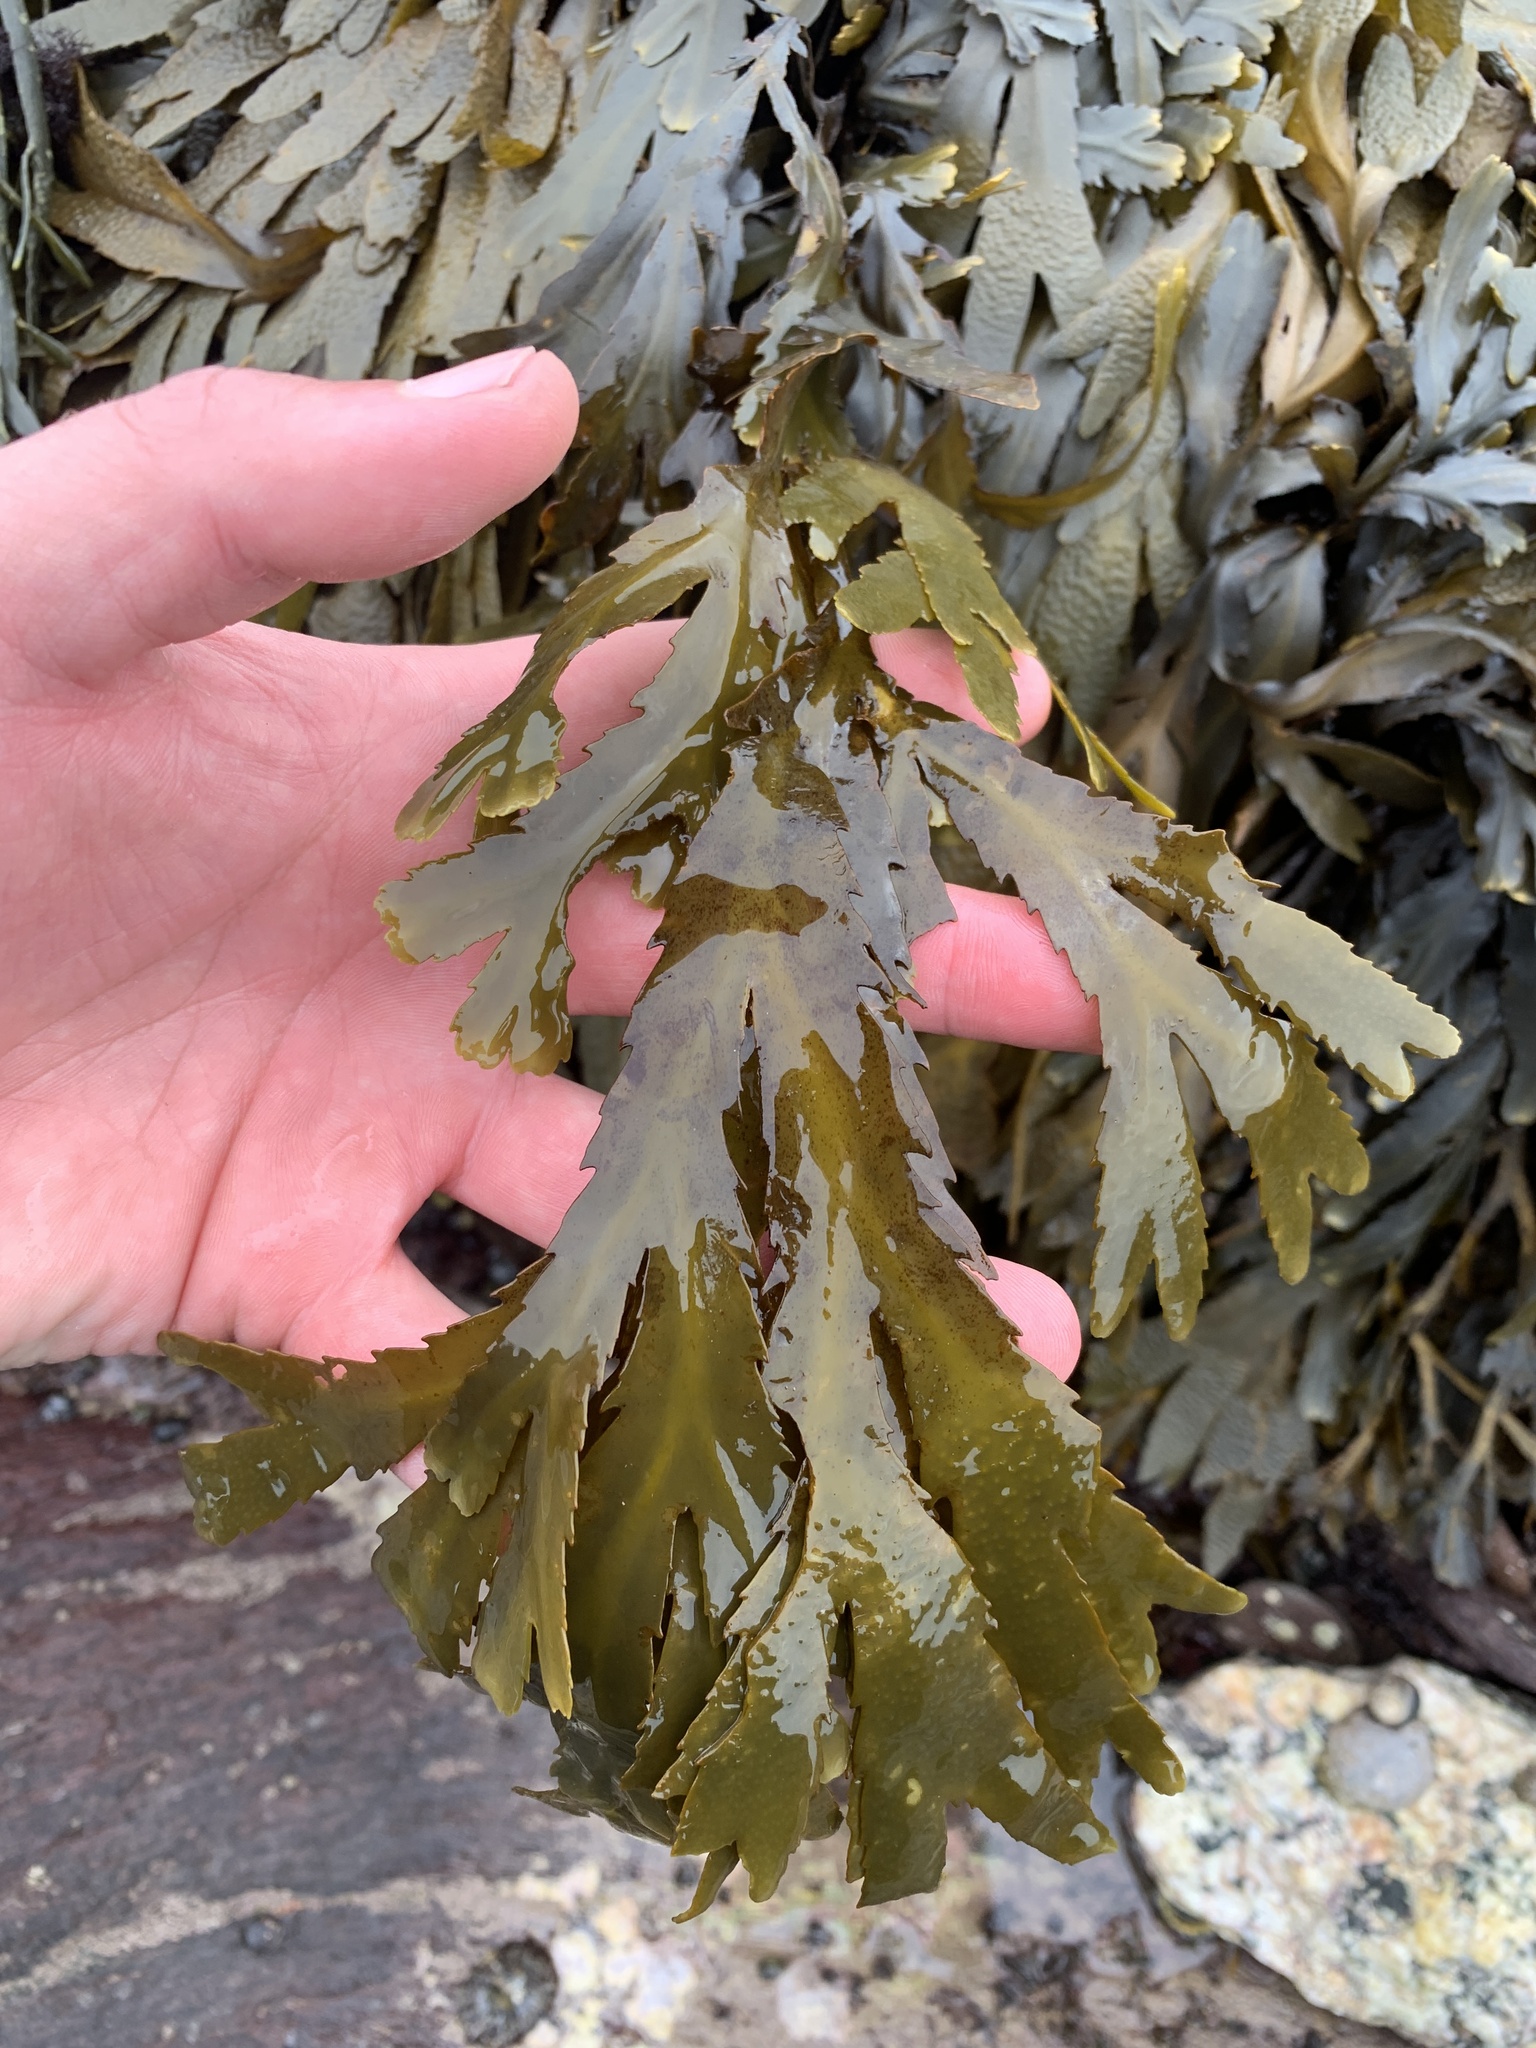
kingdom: Chromista
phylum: Ochrophyta
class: Phaeophyceae
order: Fucales
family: Fucaceae
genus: Fucus
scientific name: Fucus serratus
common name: Toothed wrack
